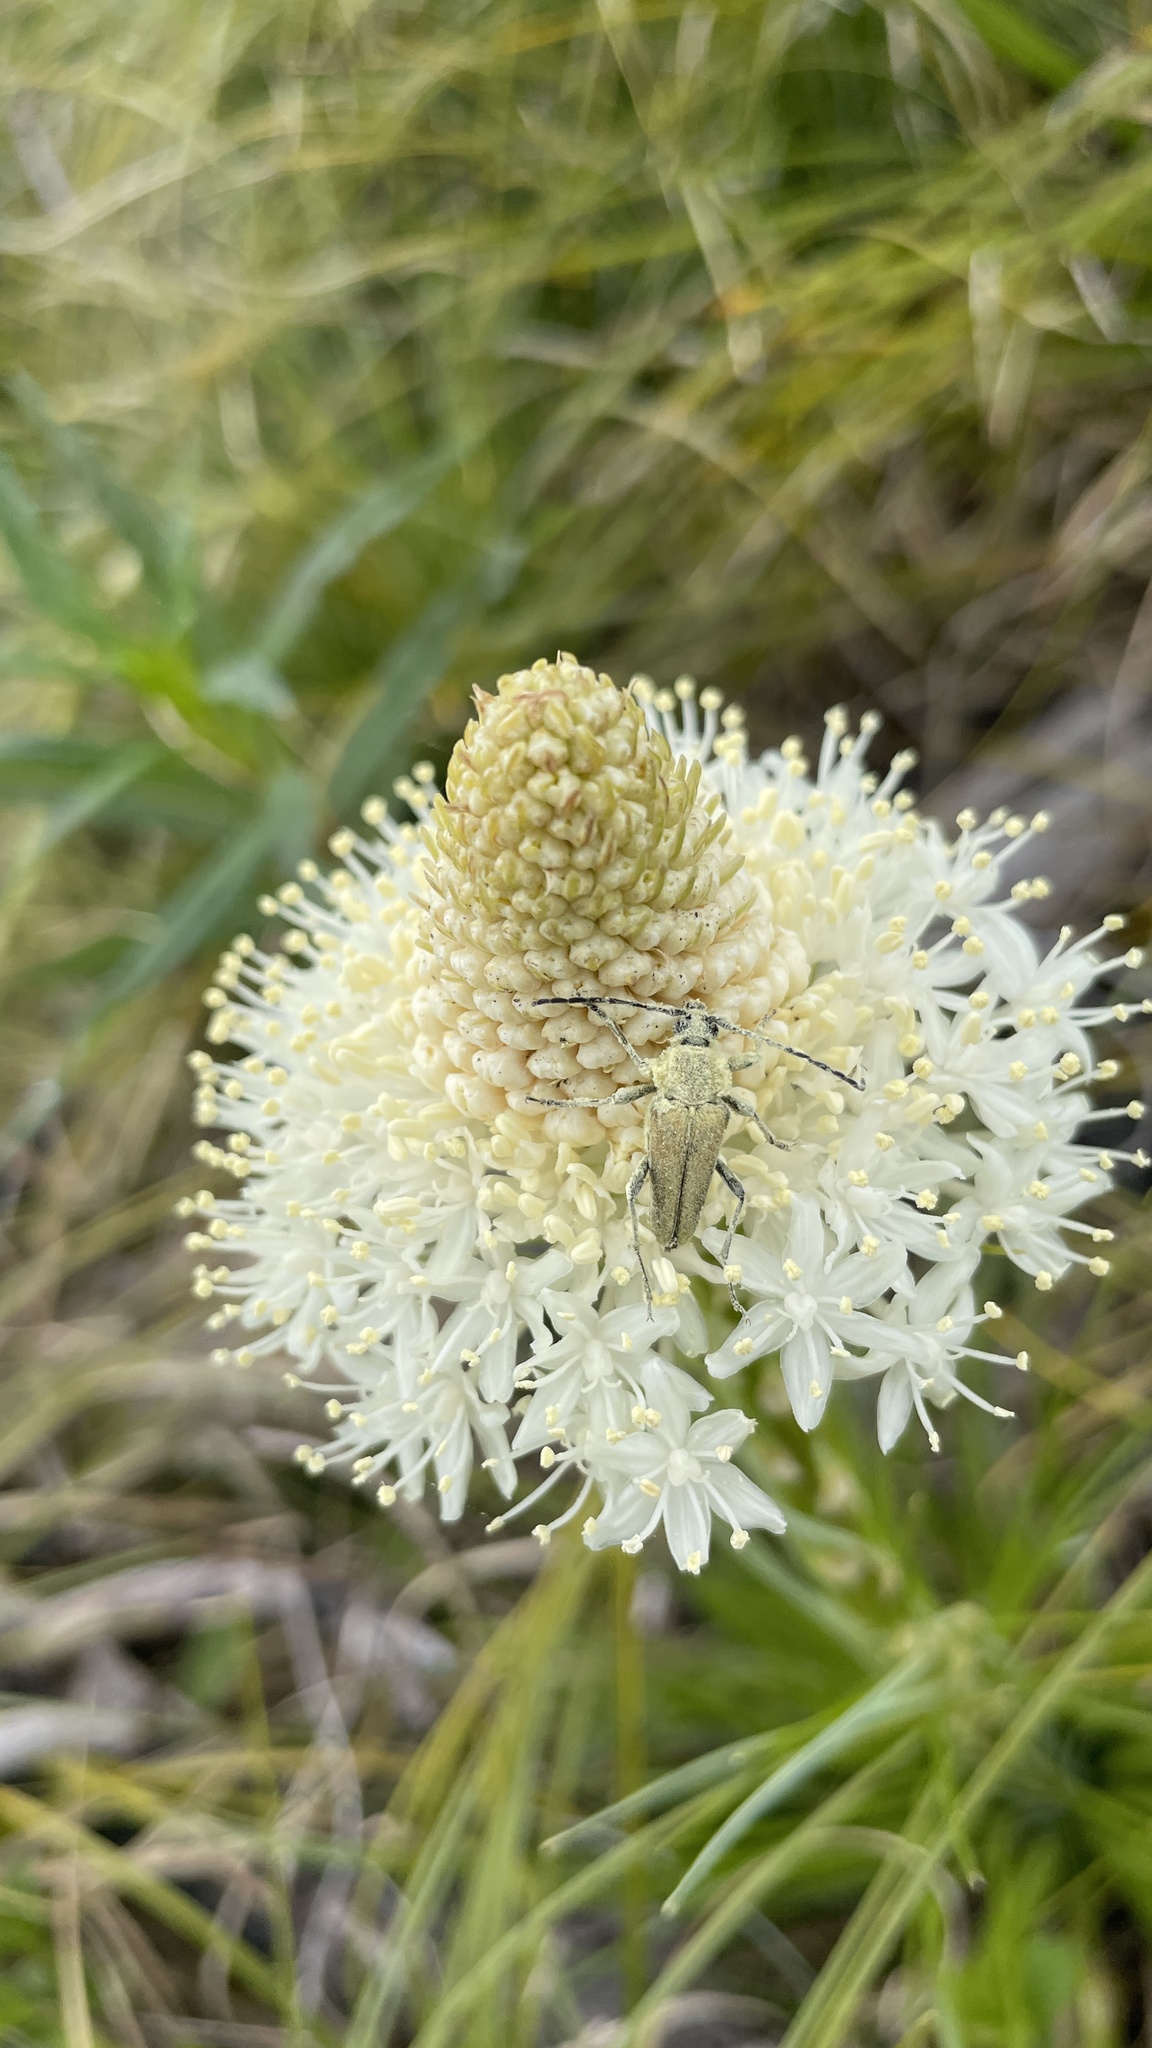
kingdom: Animalia
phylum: Arthropoda
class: Insecta
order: Coleoptera
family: Cerambycidae
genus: Cosmosalia
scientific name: Cosmosalia chrysocoma
